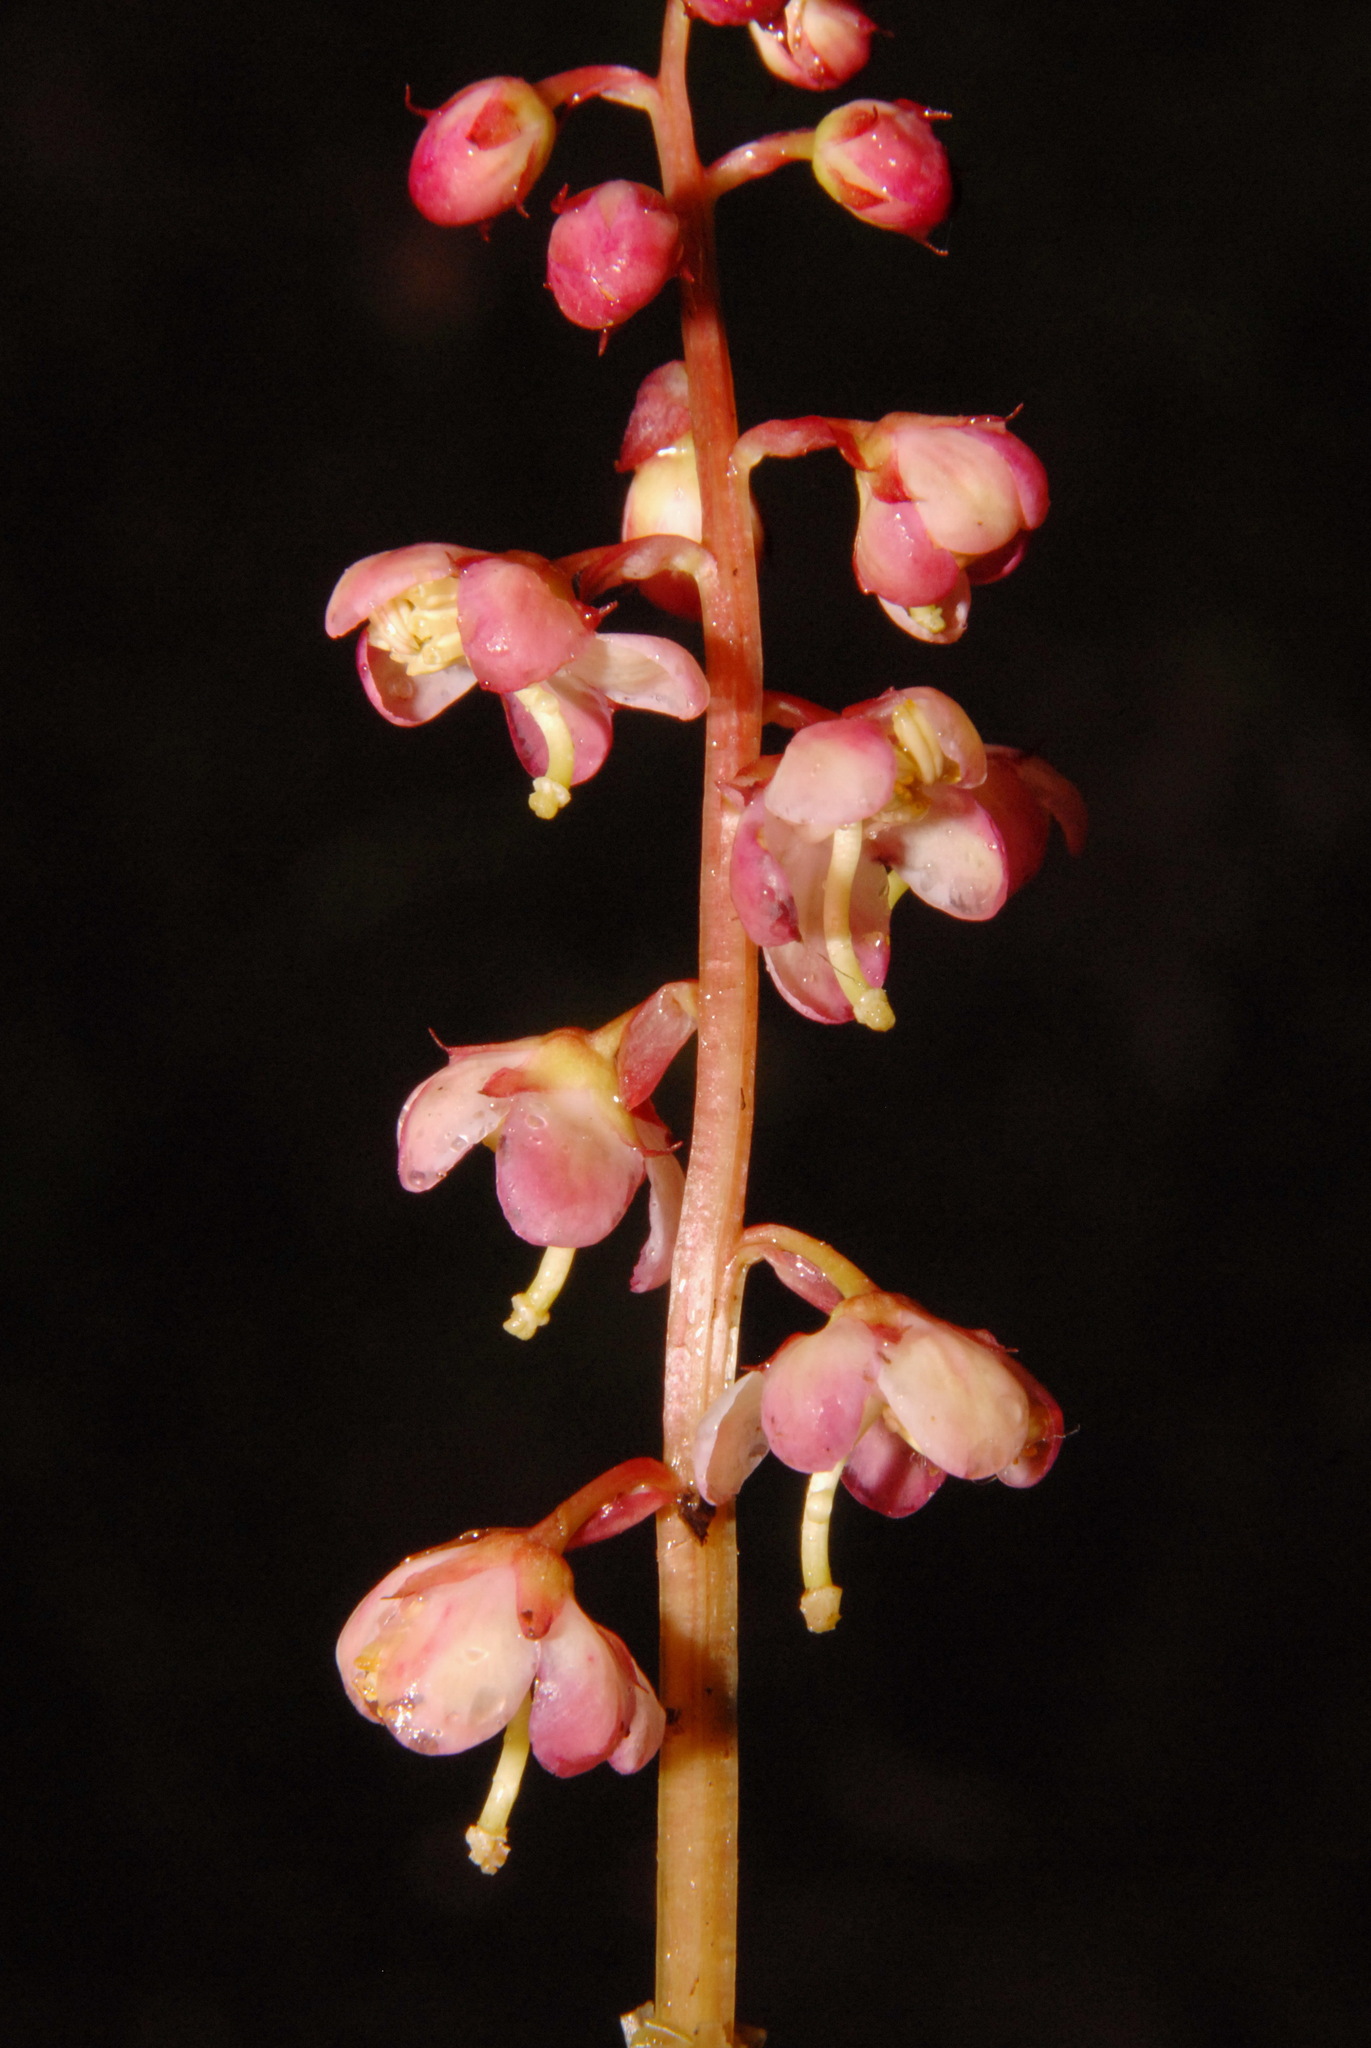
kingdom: Plantae
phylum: Tracheophyta
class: Magnoliopsida
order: Ericales
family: Ericaceae
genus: Pyrola
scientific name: Pyrola asarifolia
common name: Bog wintergreen
